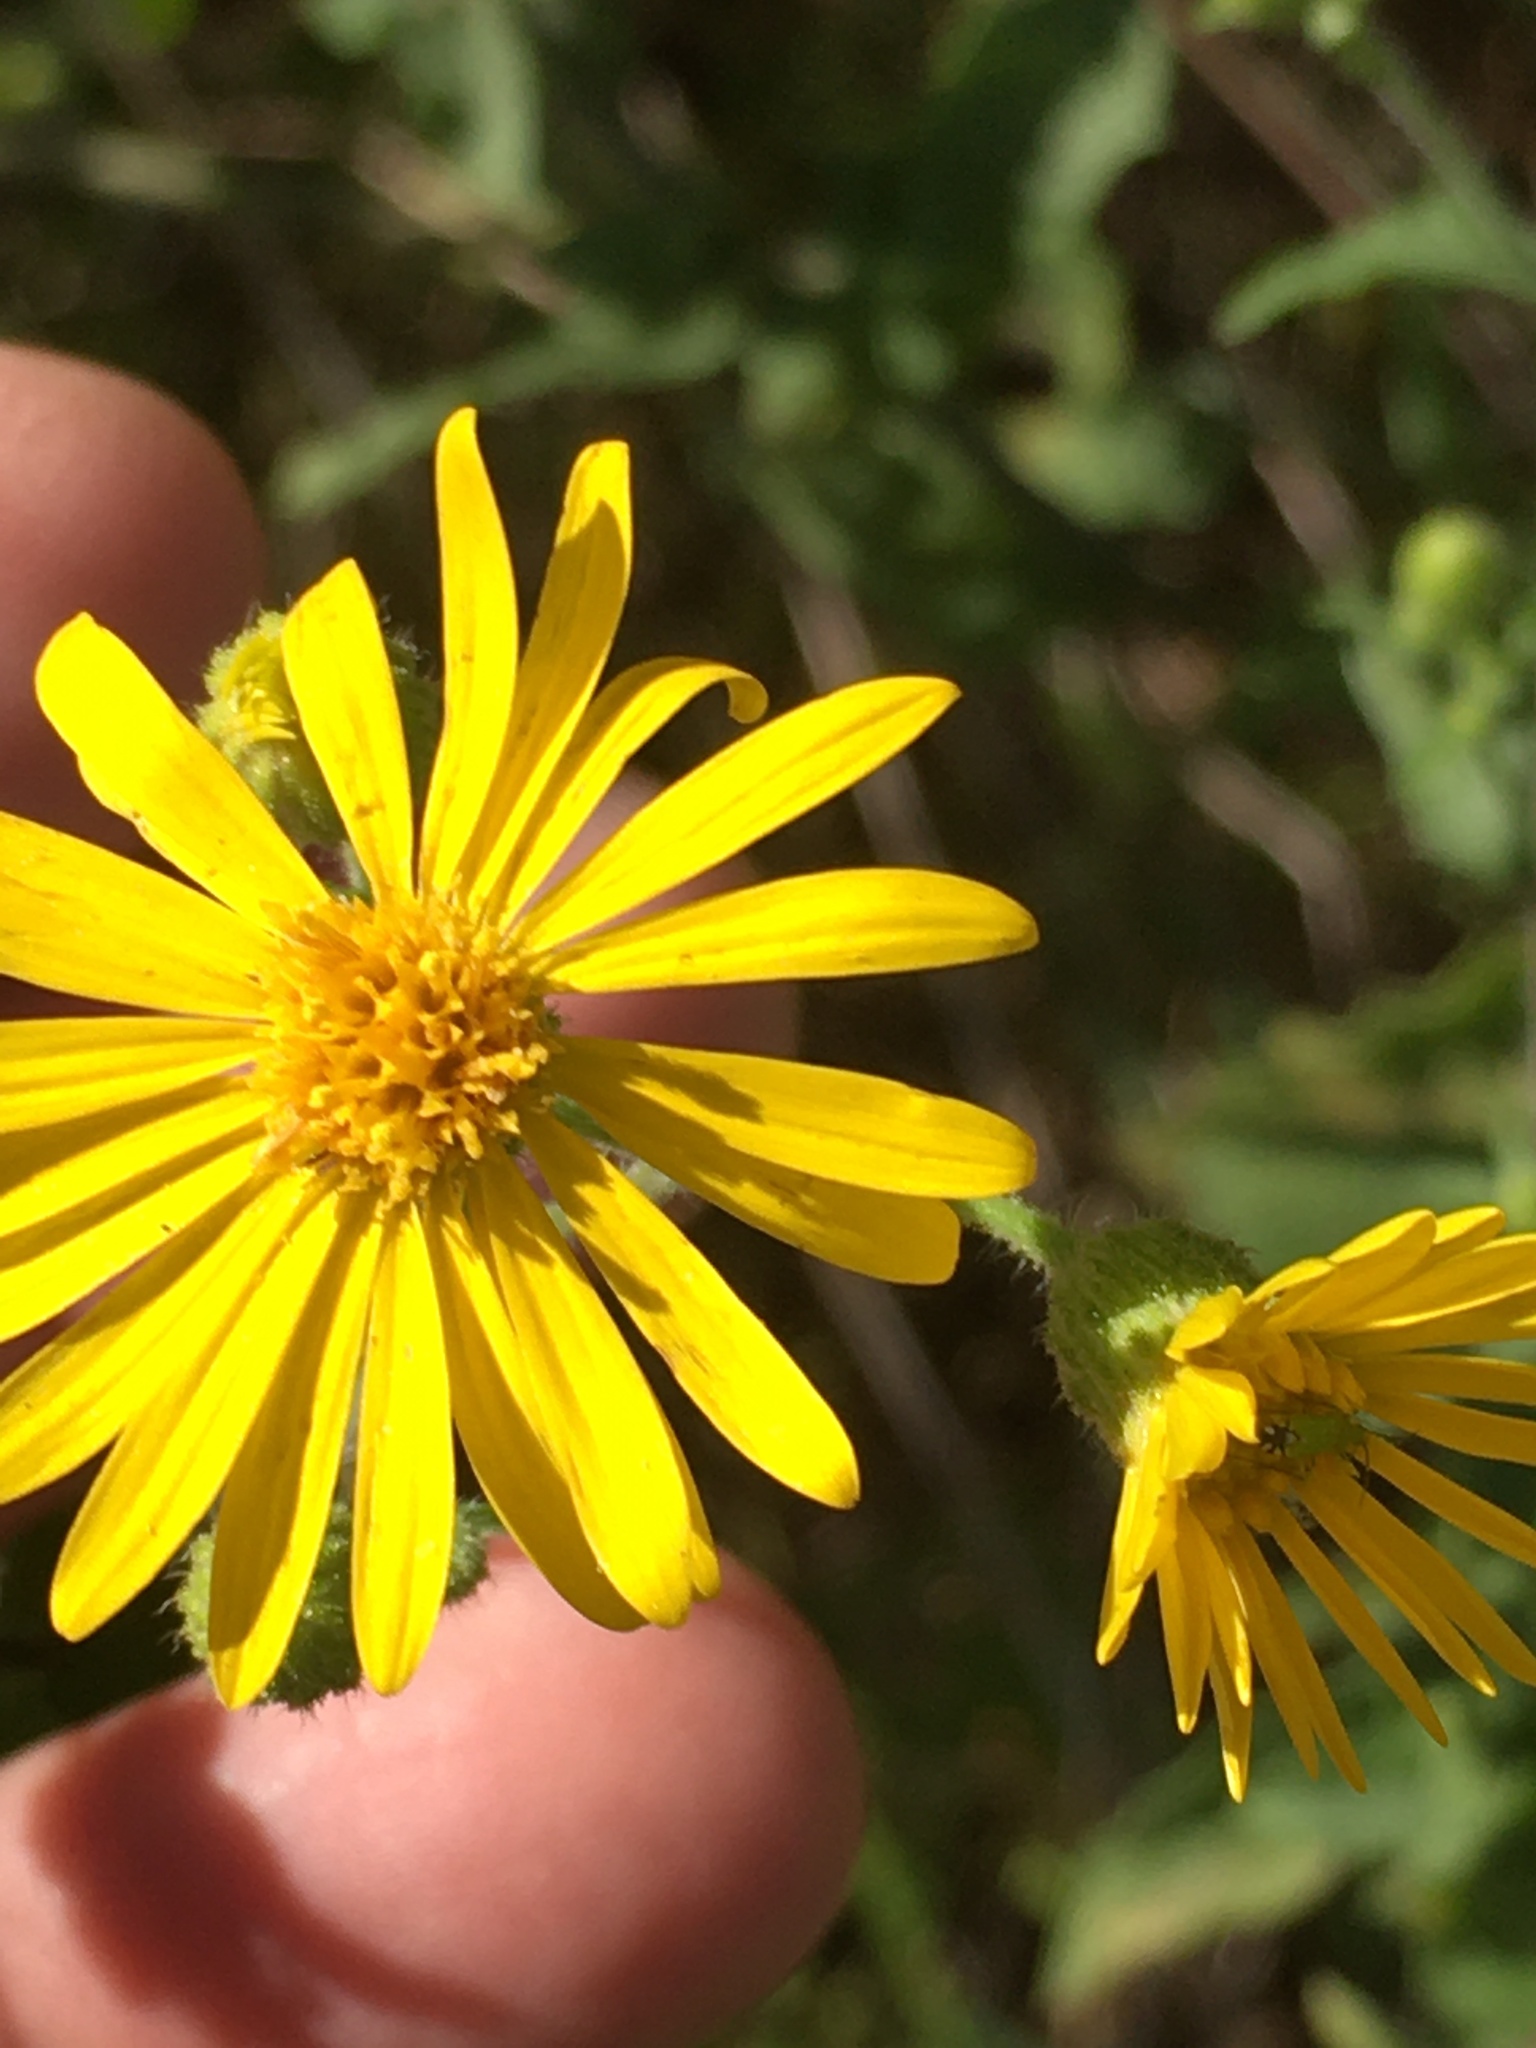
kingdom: Plantae
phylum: Tracheophyta
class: Magnoliopsida
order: Asterales
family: Asteraceae
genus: Heterotheca
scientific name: Heterotheca subaxillaris
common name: Camphorweed
